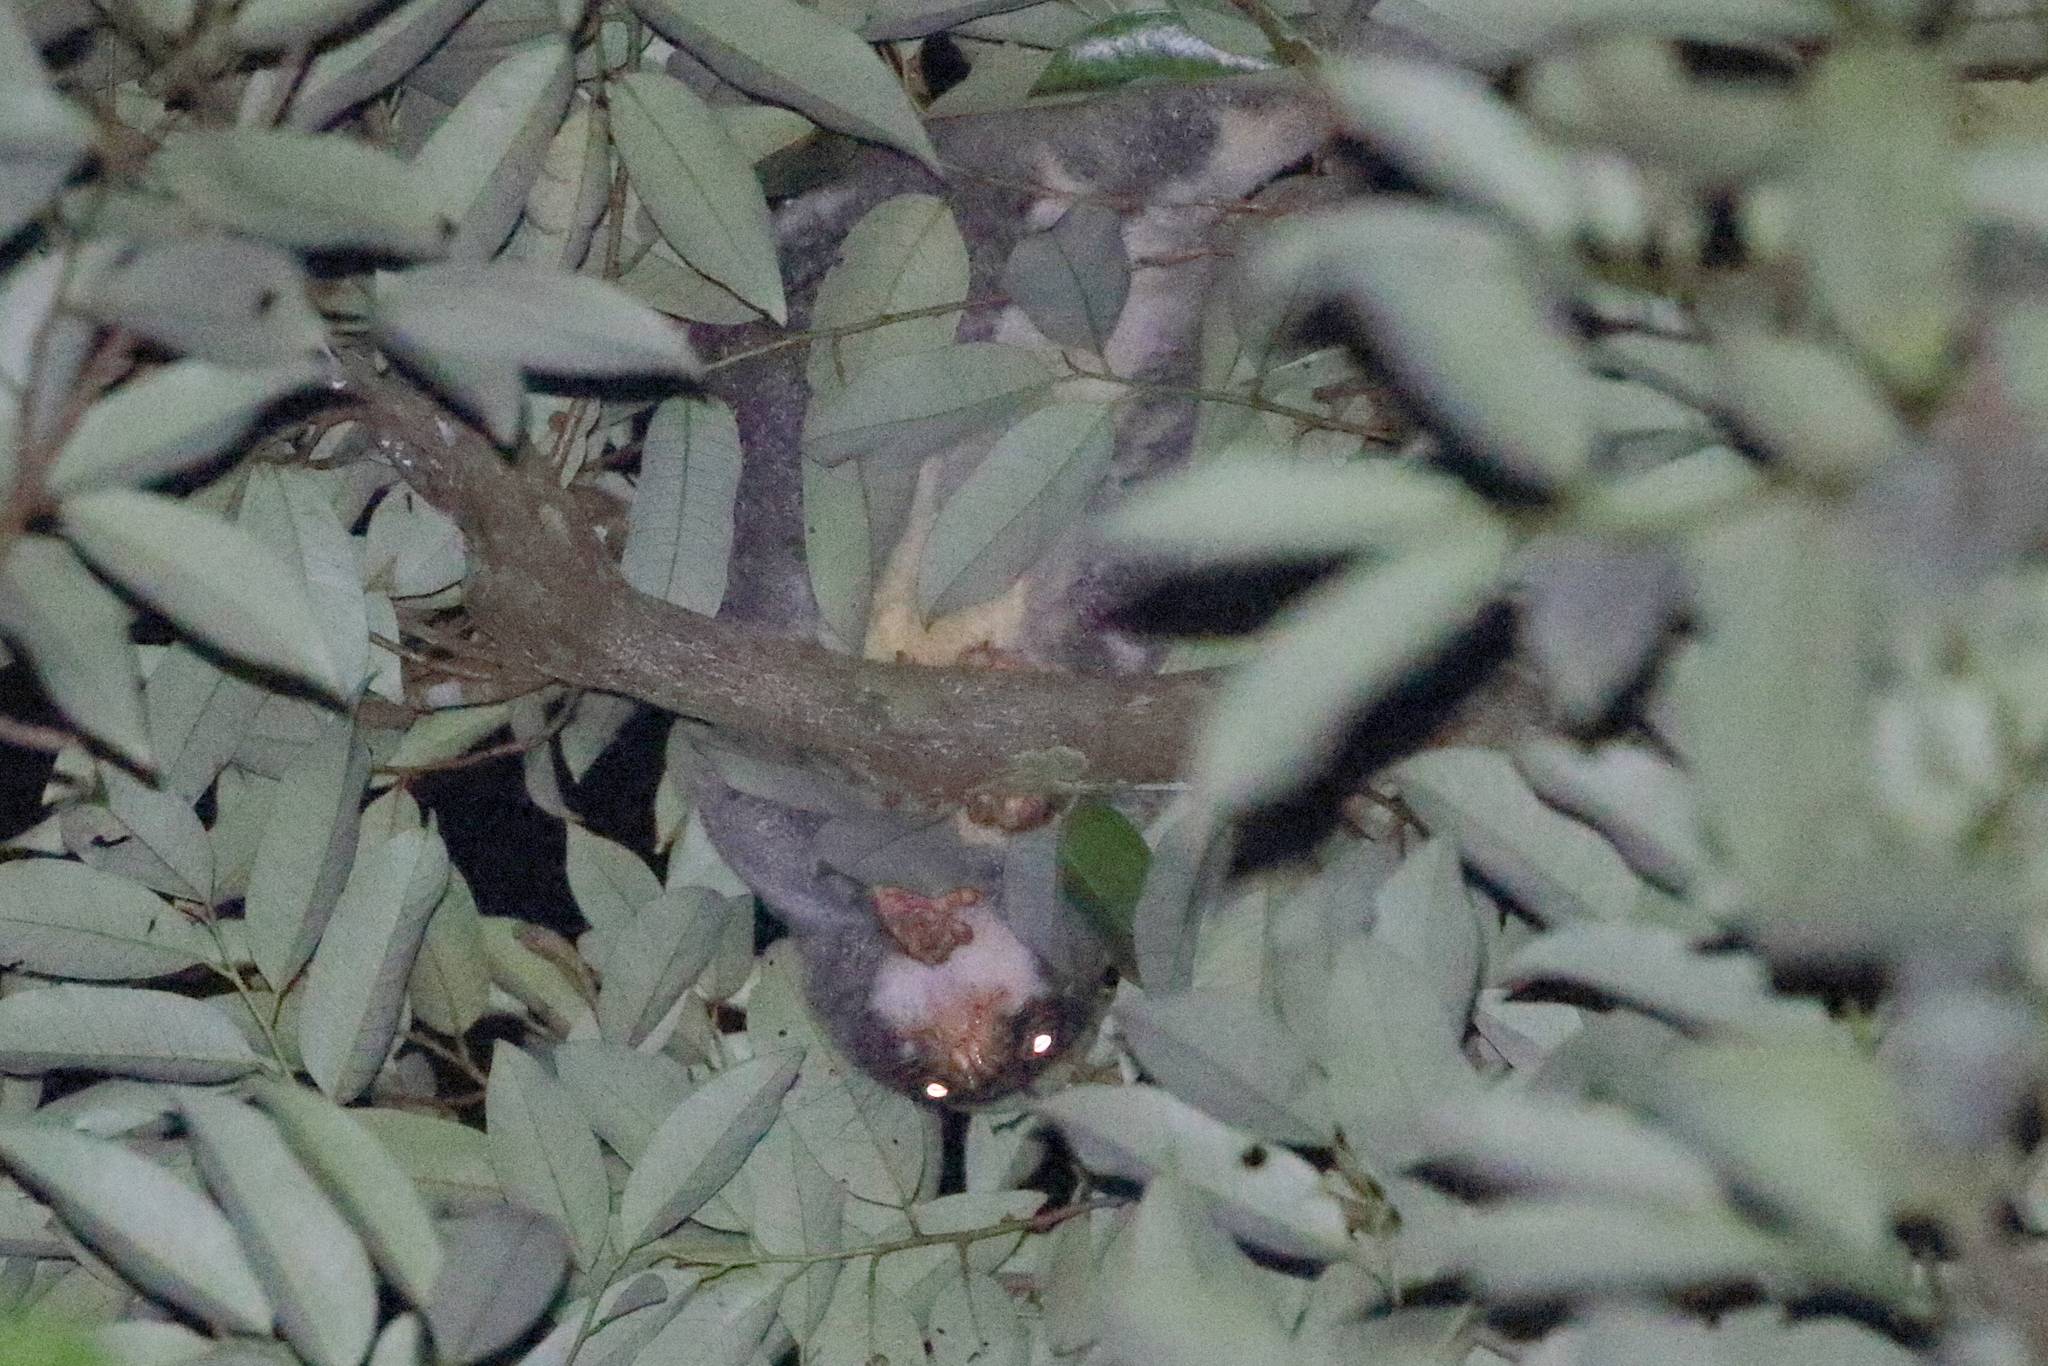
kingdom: Animalia
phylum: Chordata
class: Mammalia
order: Diprotodontia
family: Phalangeridae
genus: Spilocuscus
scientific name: Spilocuscus maculatus
